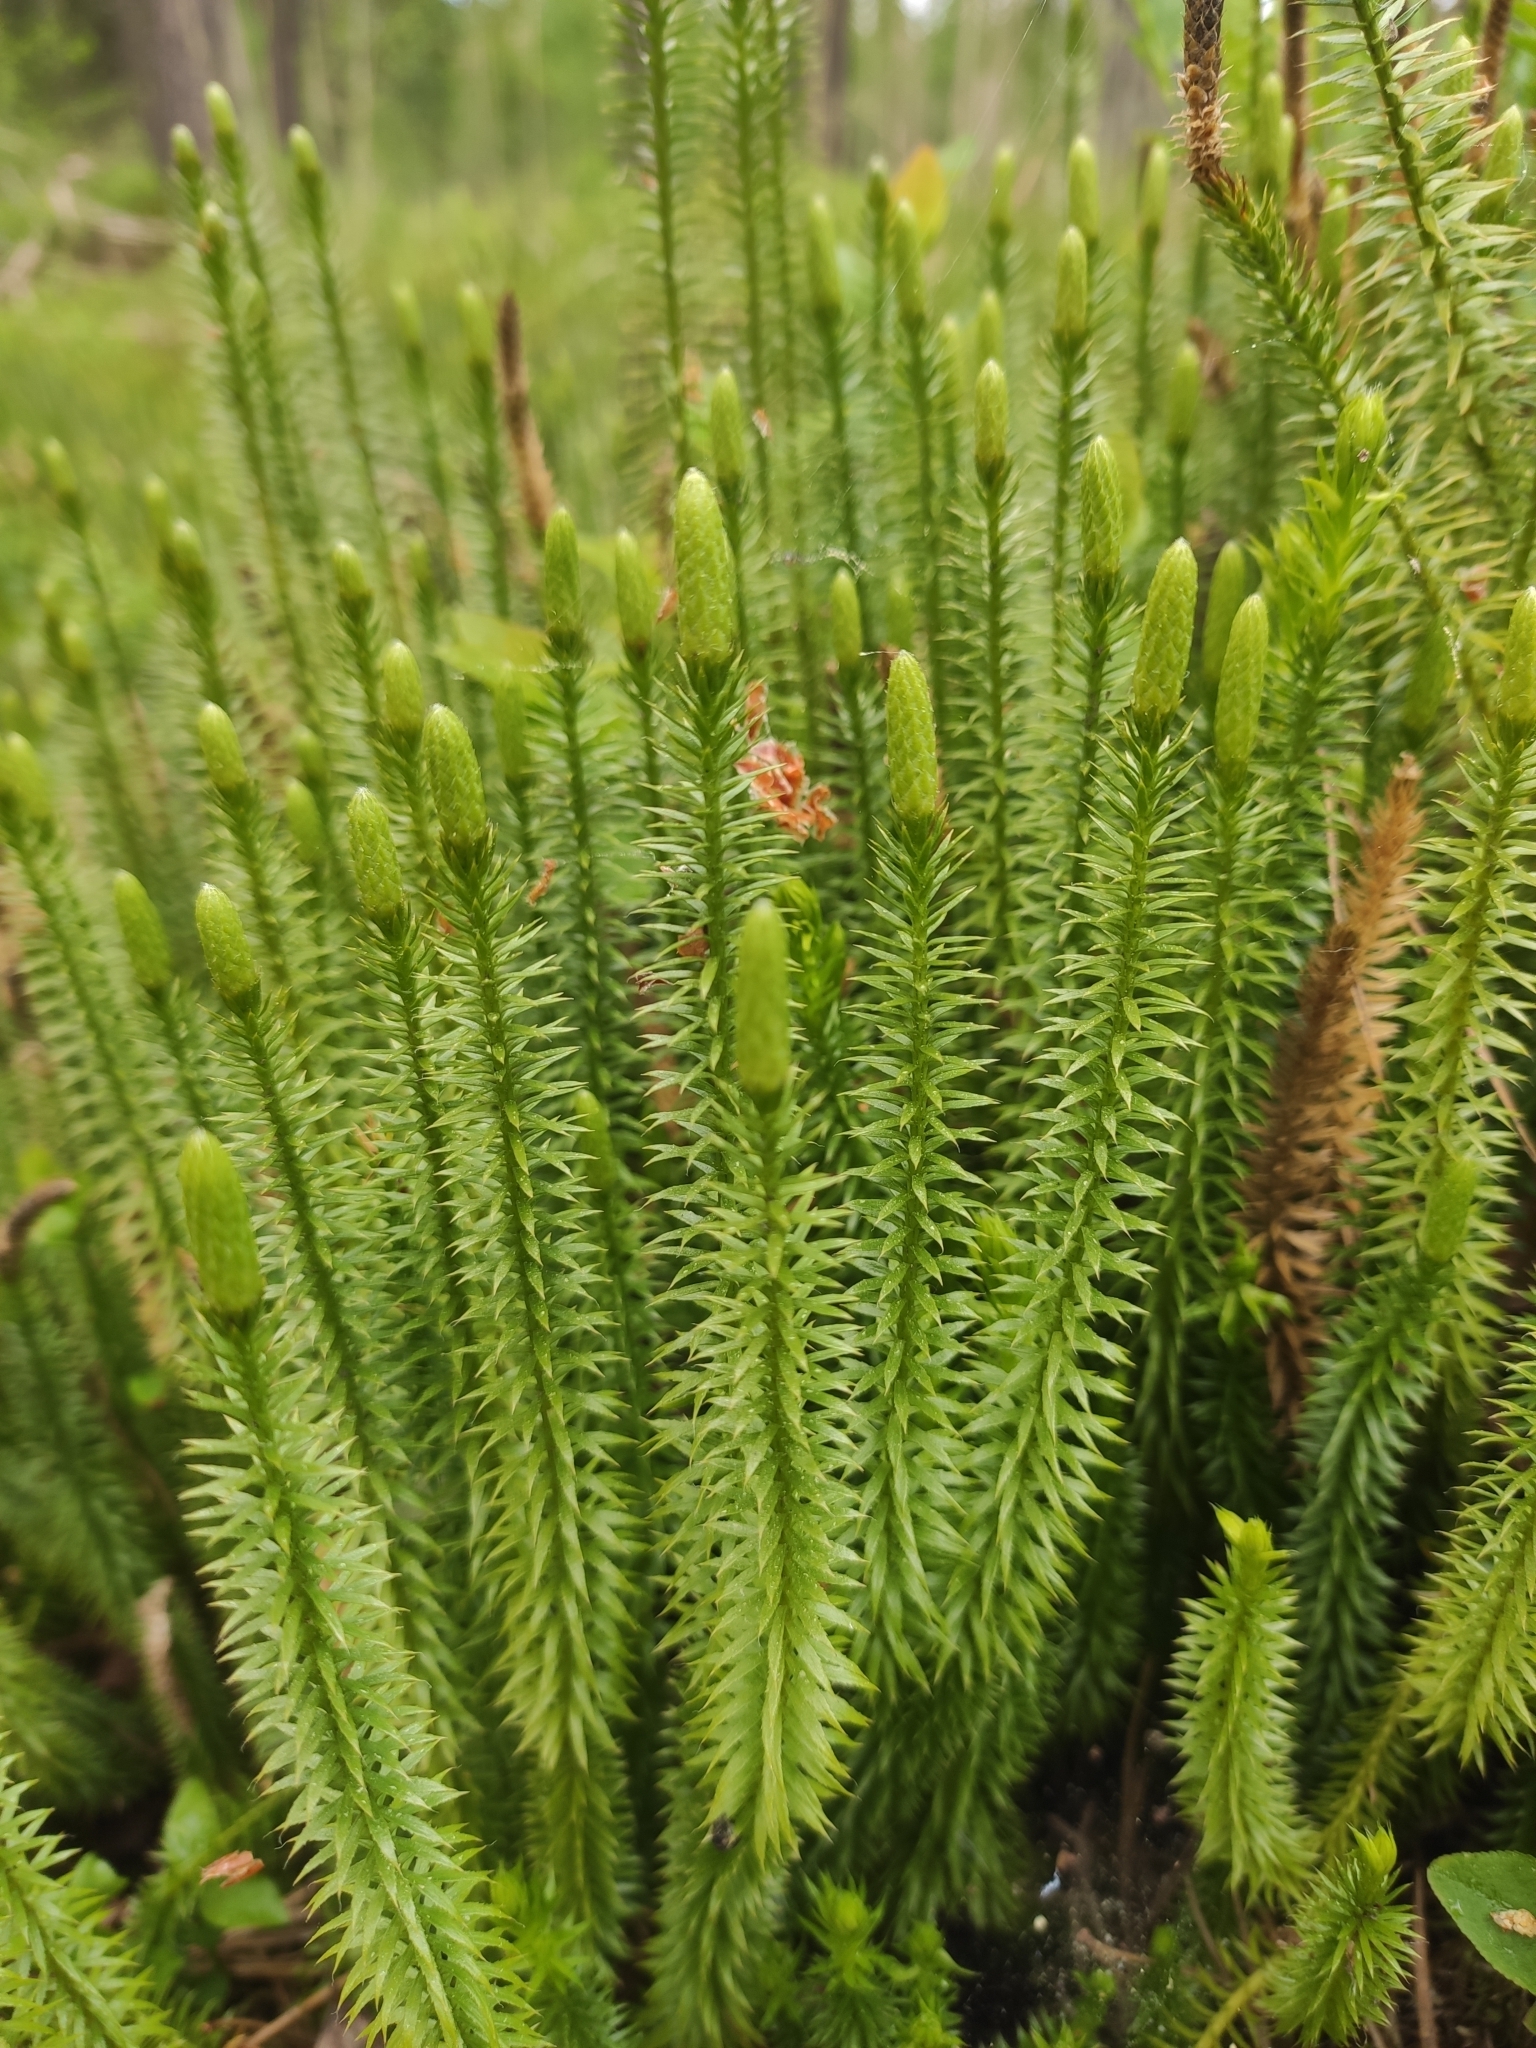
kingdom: Plantae
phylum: Tracheophyta
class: Lycopodiopsida
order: Lycopodiales
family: Lycopodiaceae
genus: Spinulum
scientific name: Spinulum annotinum
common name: Interrupted club-moss
